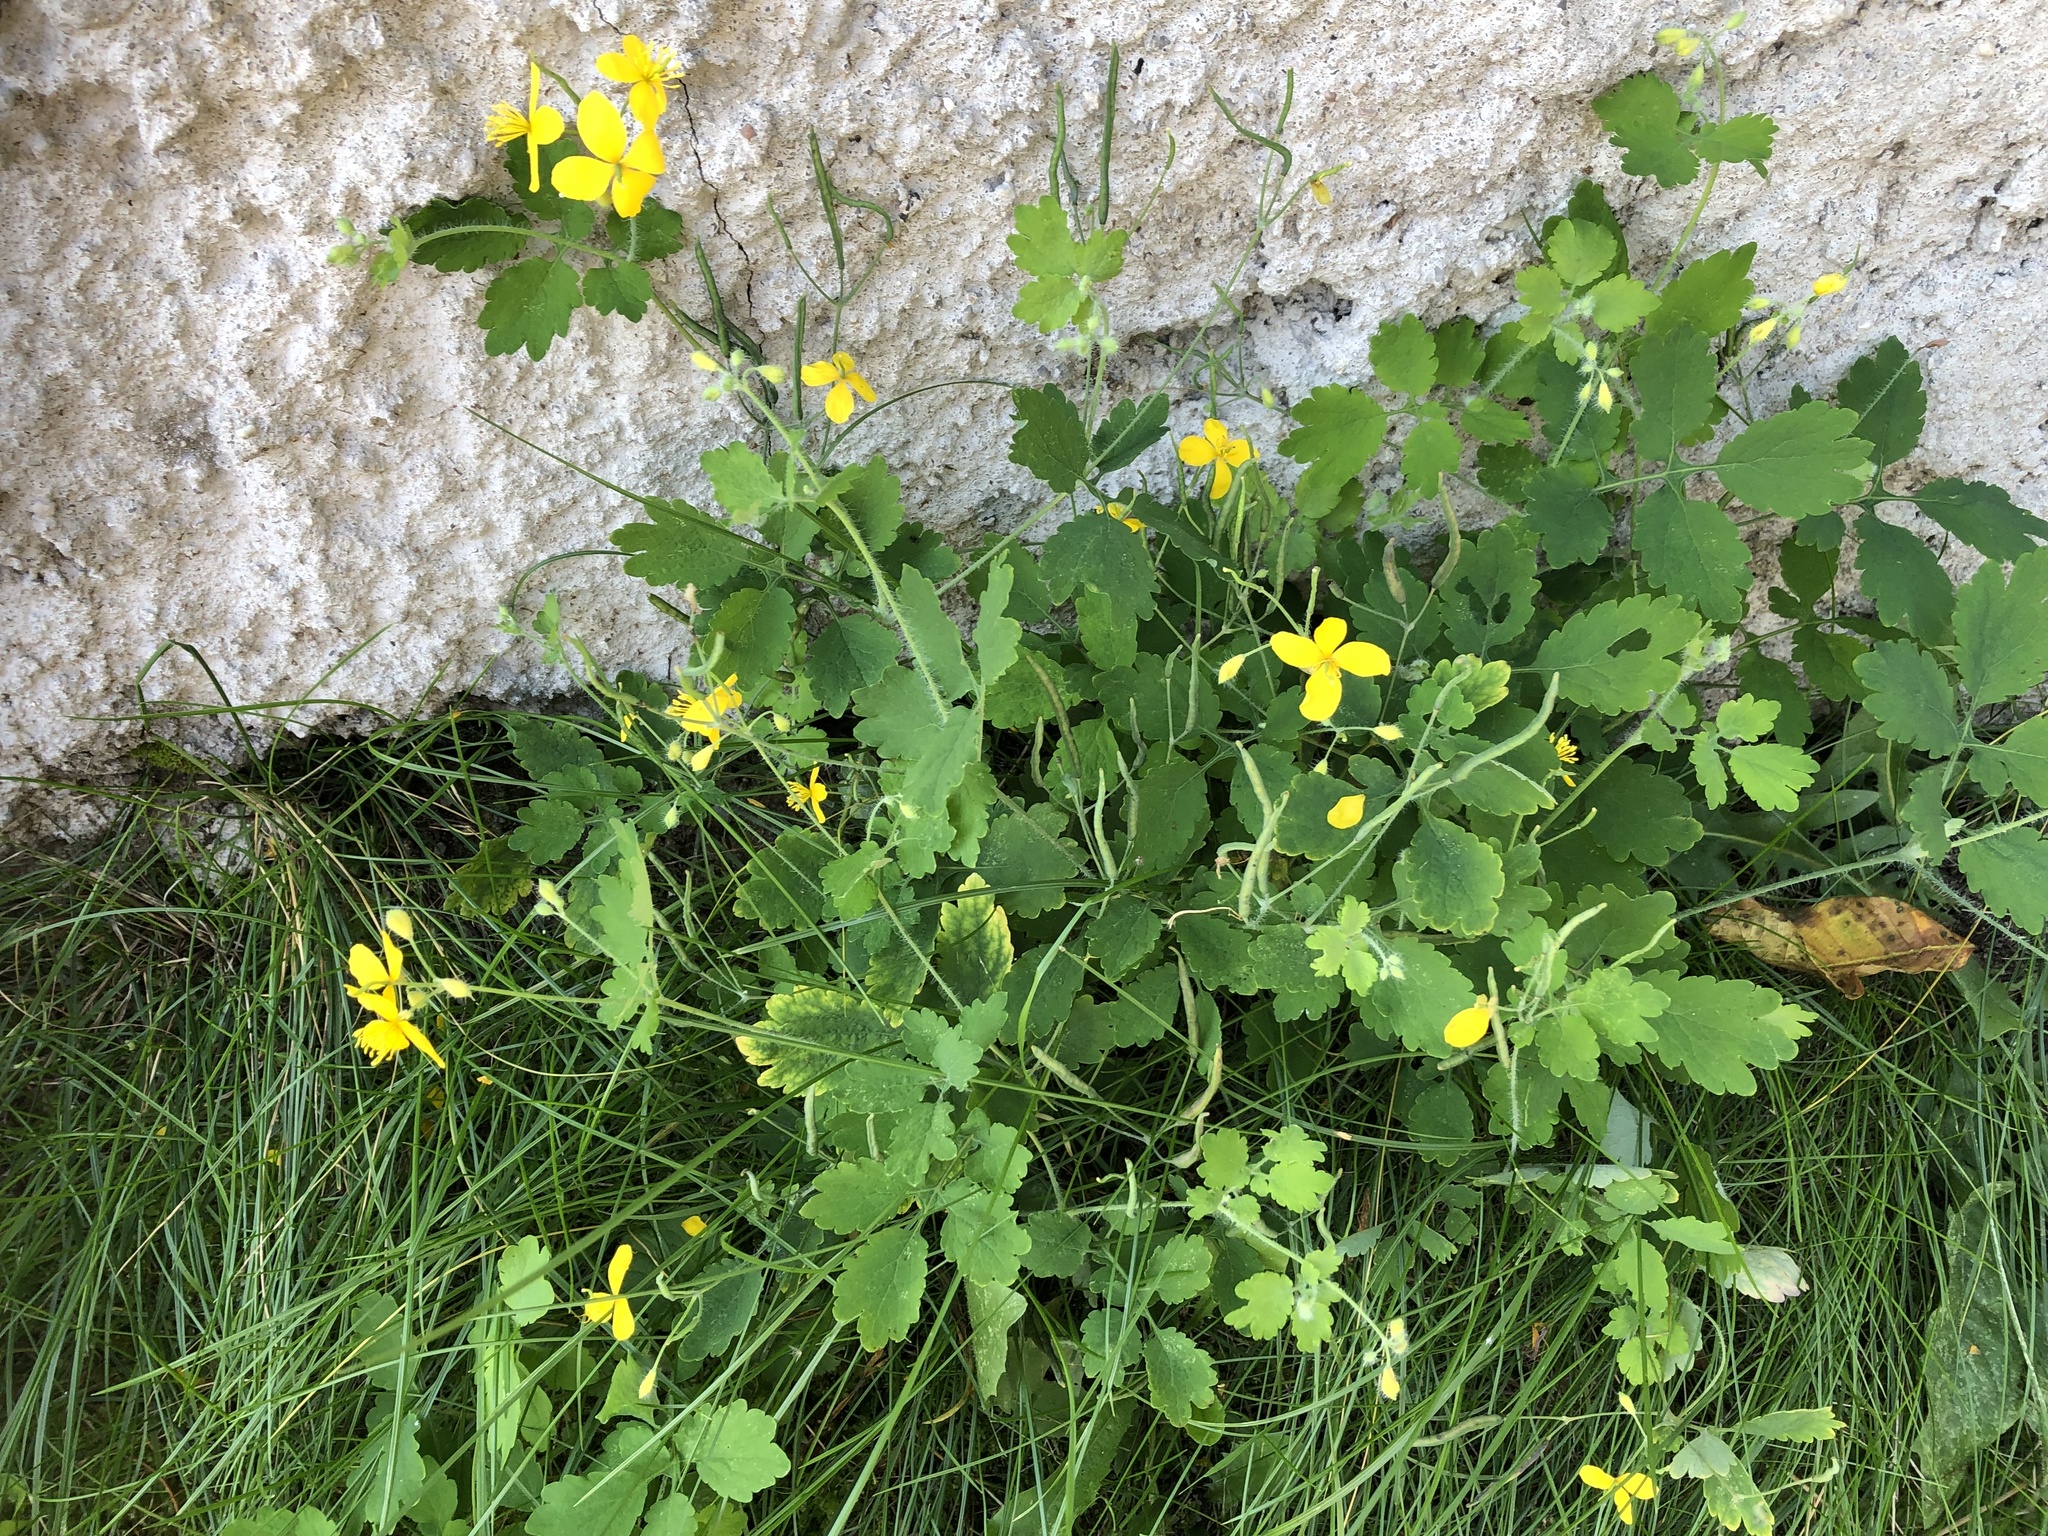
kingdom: Plantae
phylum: Tracheophyta
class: Magnoliopsida
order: Ranunculales
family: Papaveraceae
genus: Chelidonium
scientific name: Chelidonium majus
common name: Greater celandine
